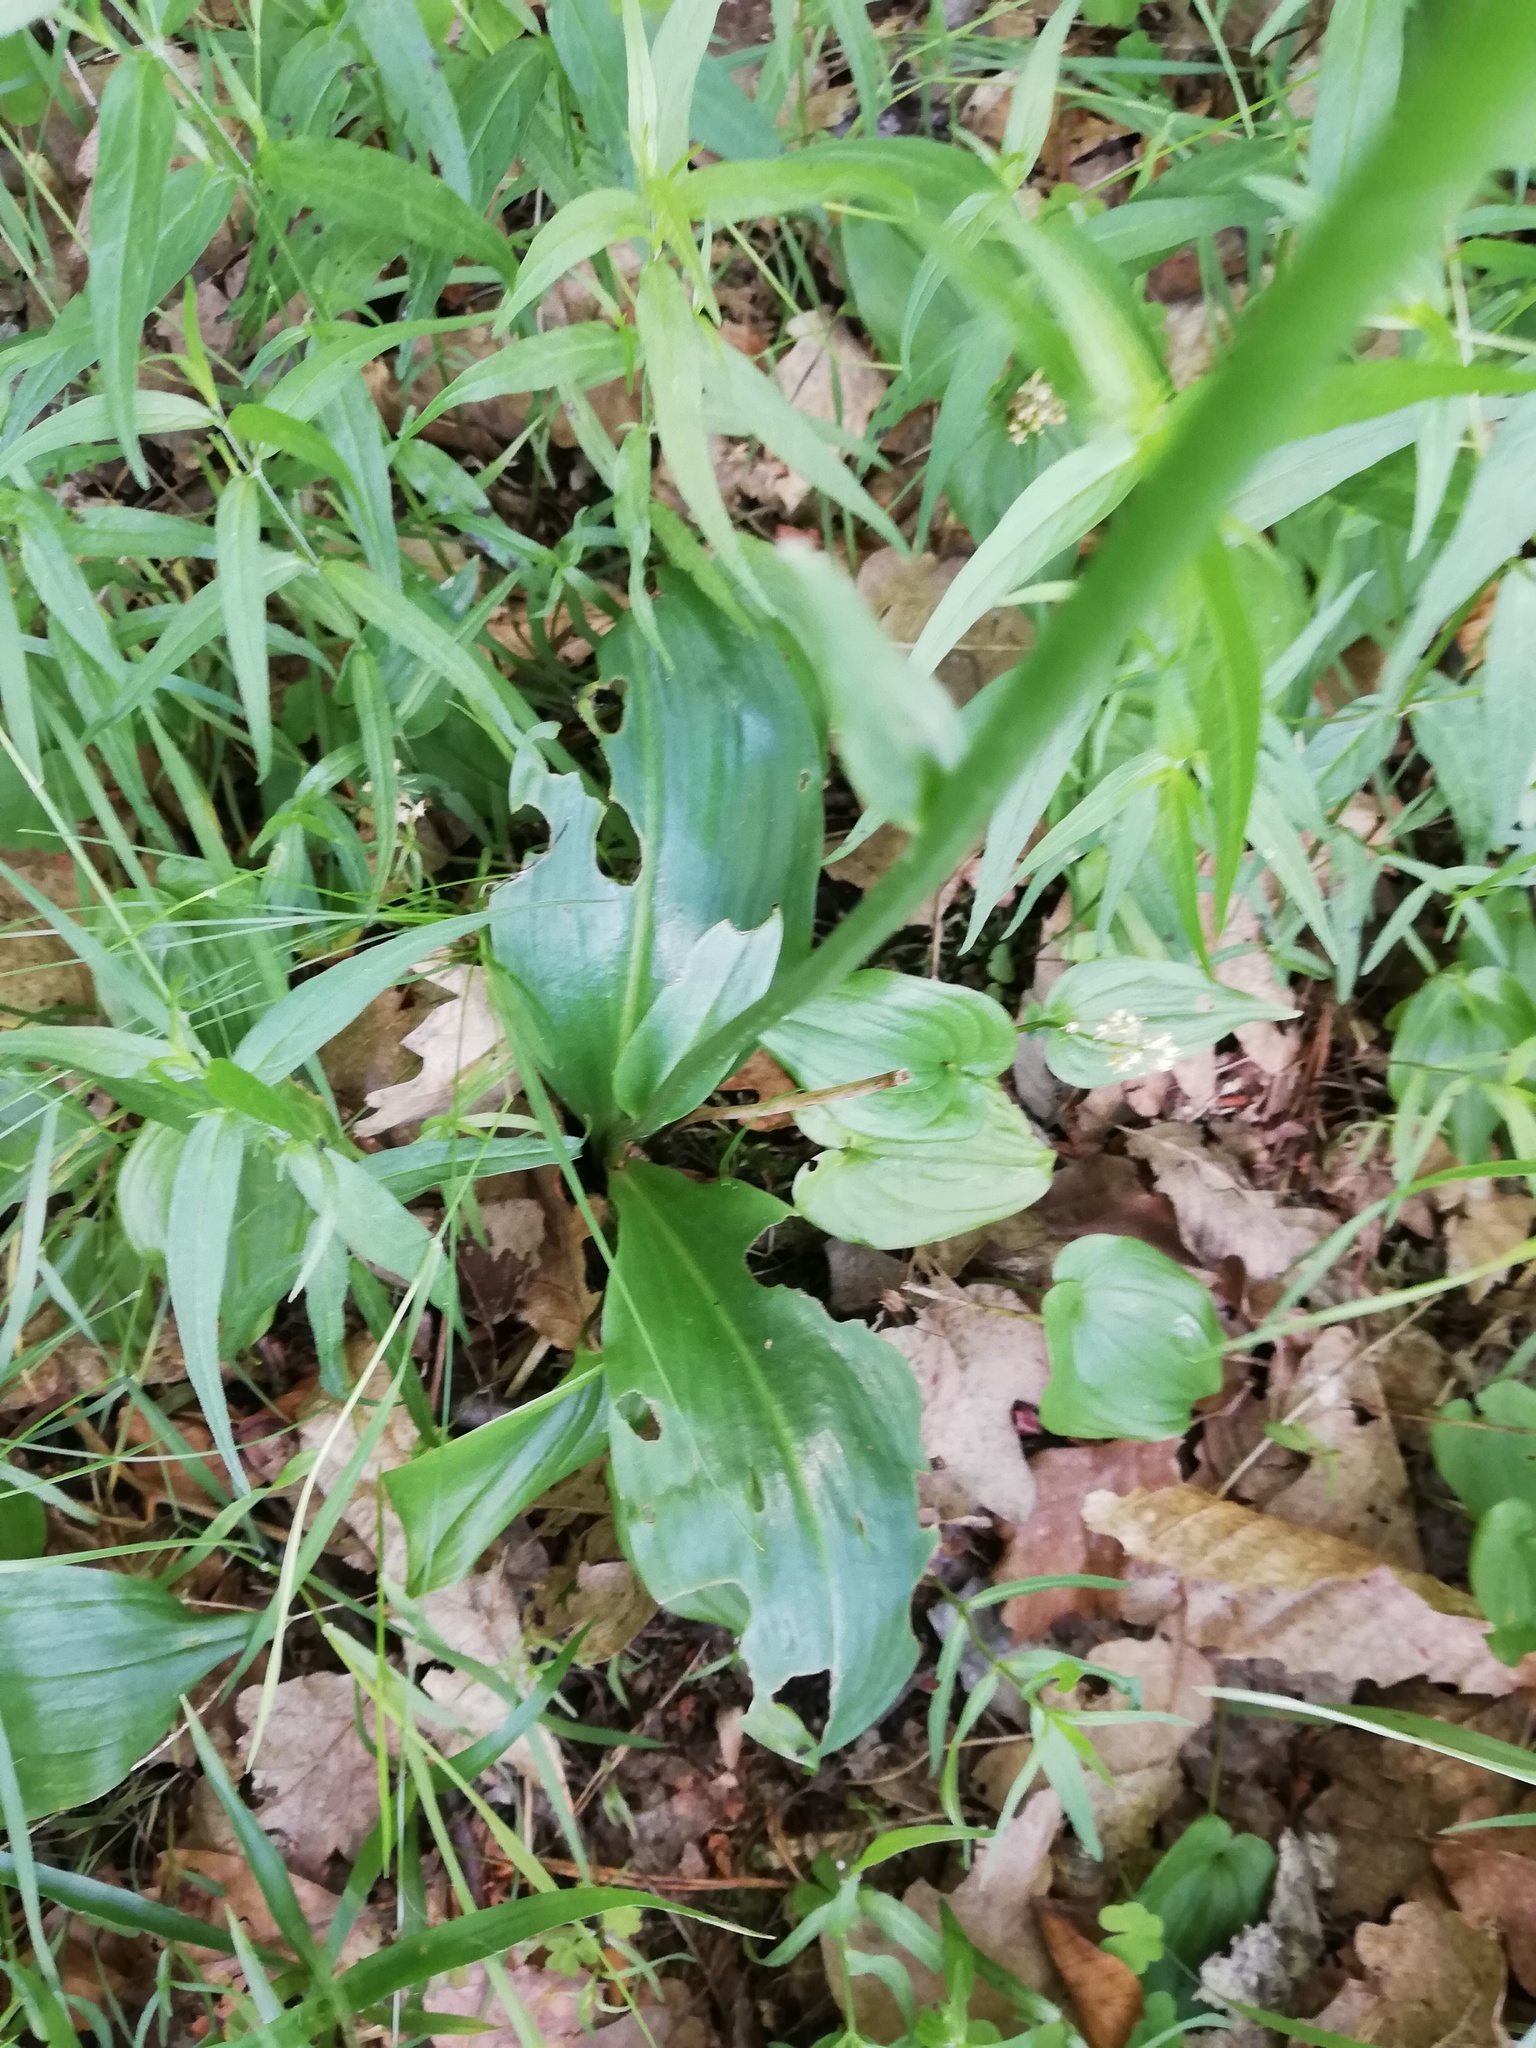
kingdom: Plantae
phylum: Tracheophyta
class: Liliopsida
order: Asparagales
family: Orchidaceae
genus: Platanthera
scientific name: Platanthera bifolia
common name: Lesser butterfly-orchid
